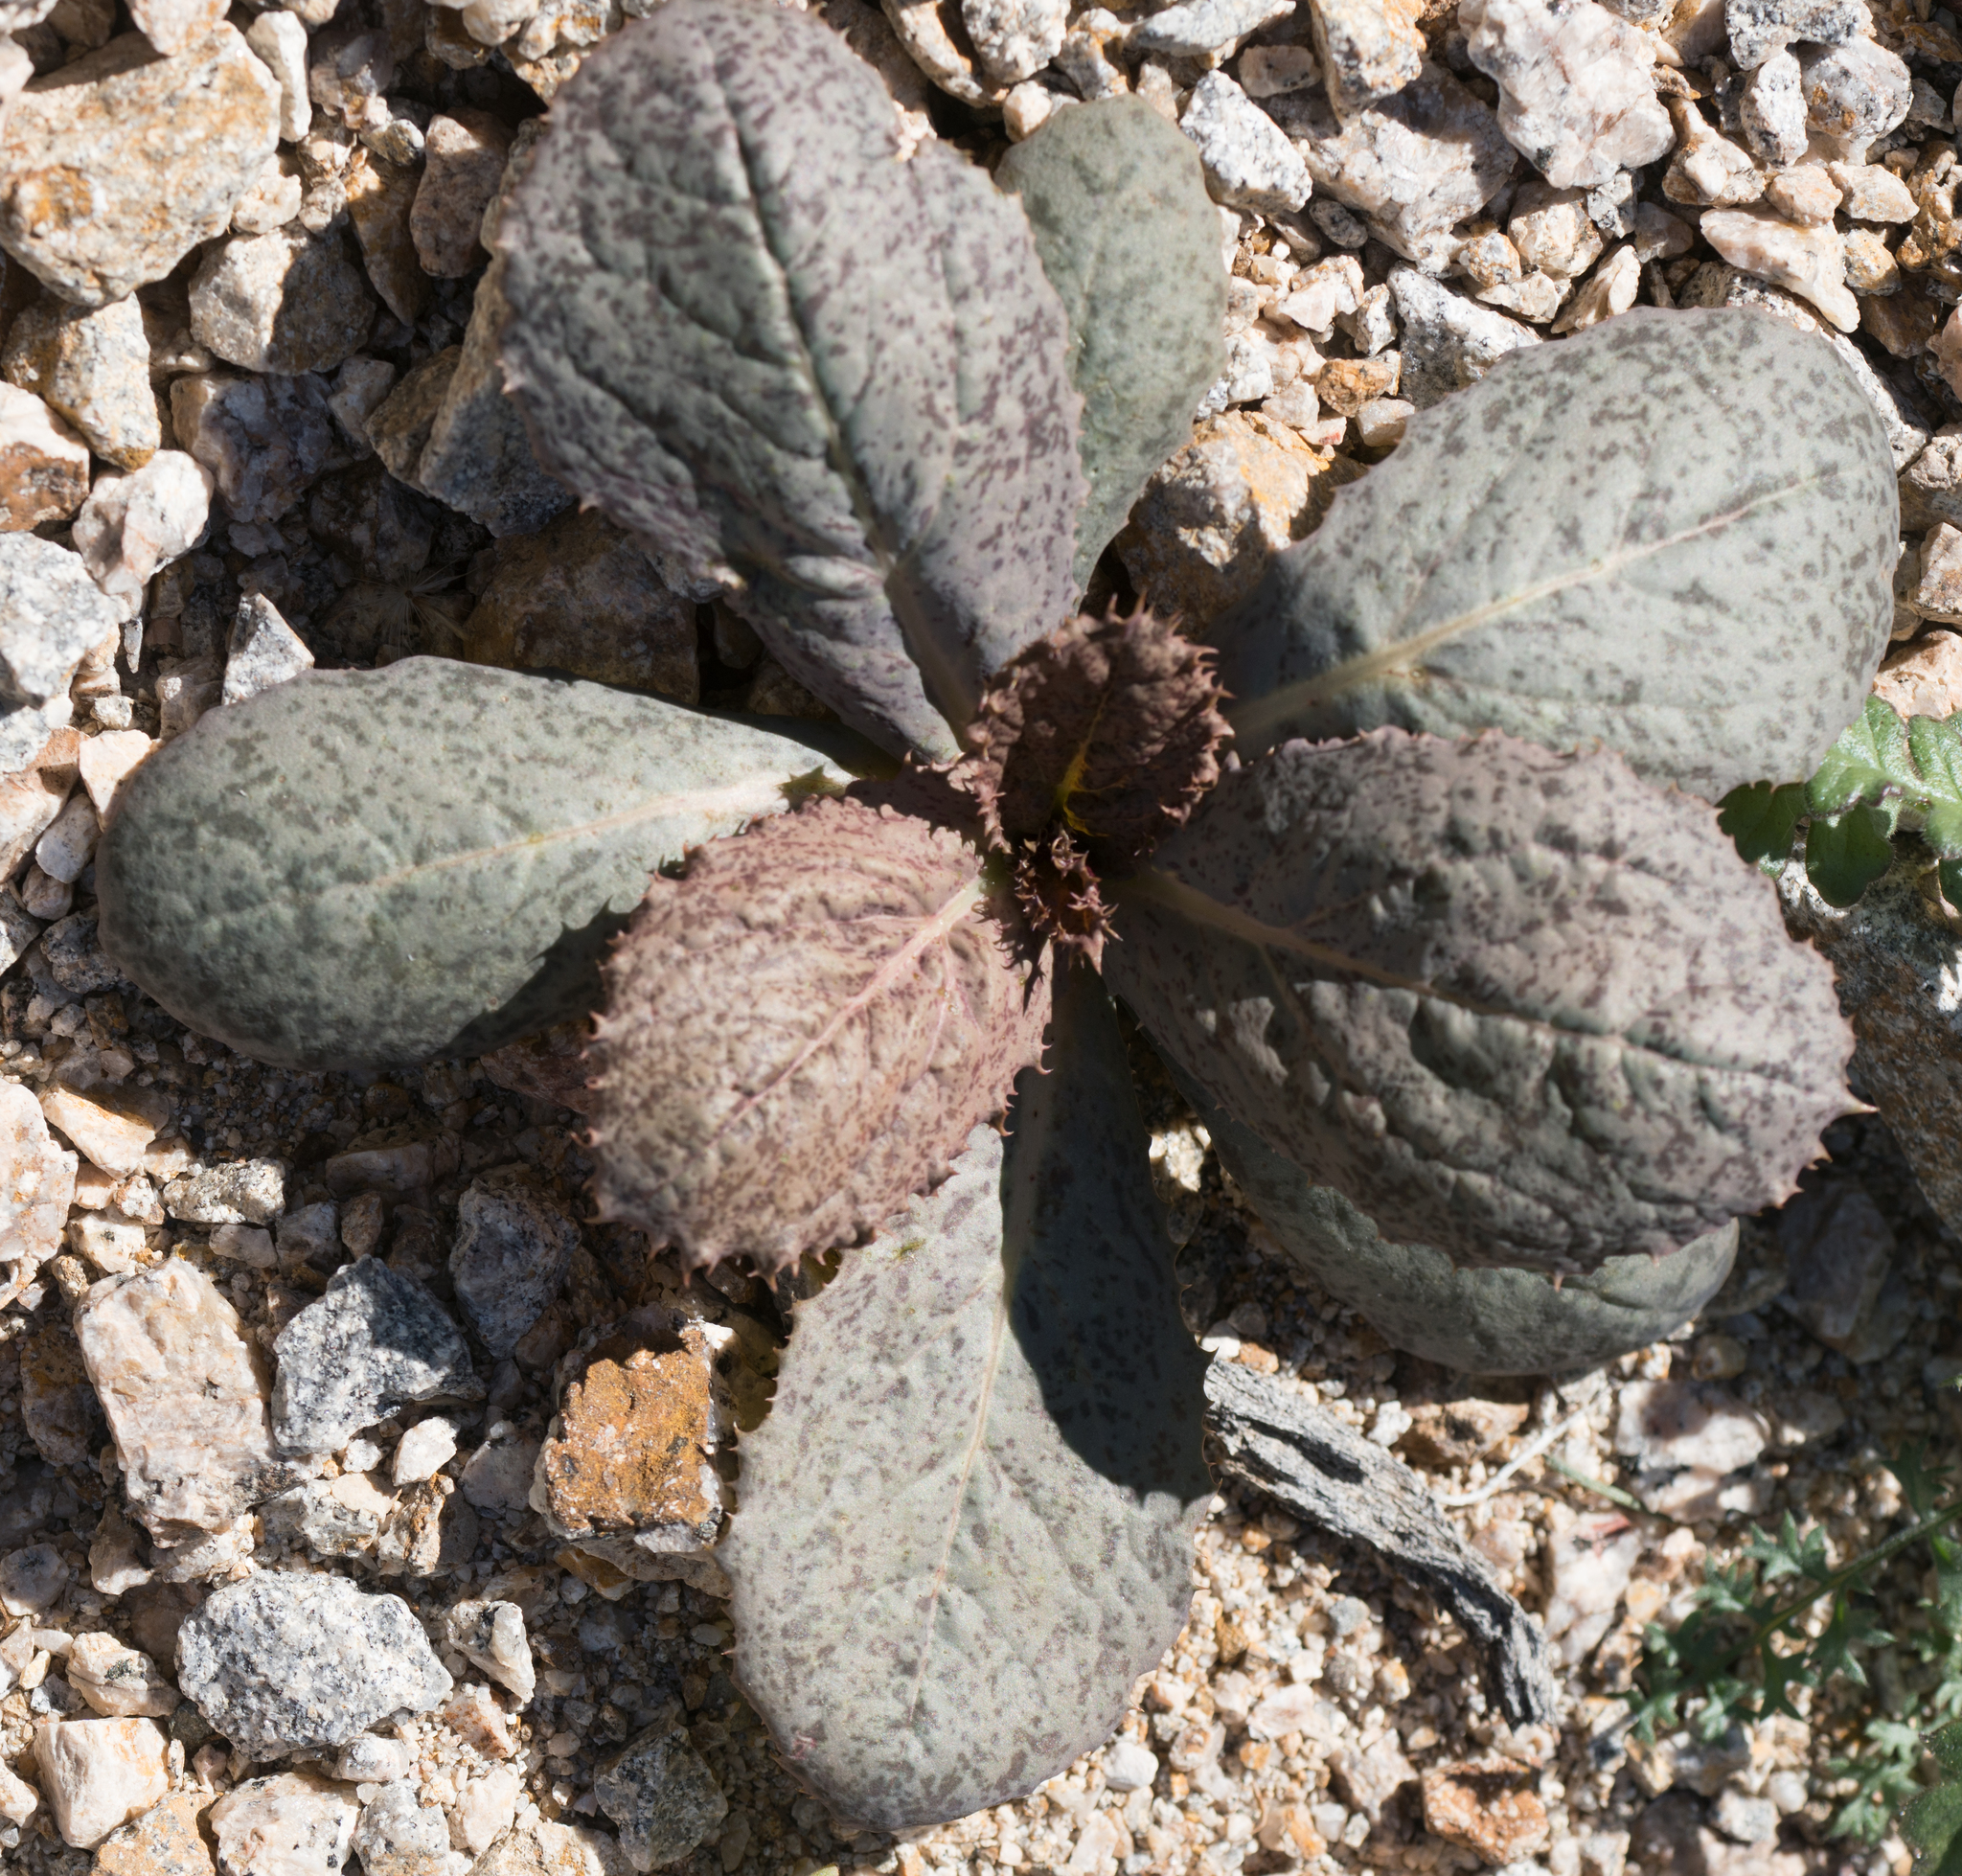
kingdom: Plantae
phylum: Tracheophyta
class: Magnoliopsida
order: Asterales
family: Asteraceae
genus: Atrichoseris
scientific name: Atrichoseris platyphylla
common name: Tobaccoweed
